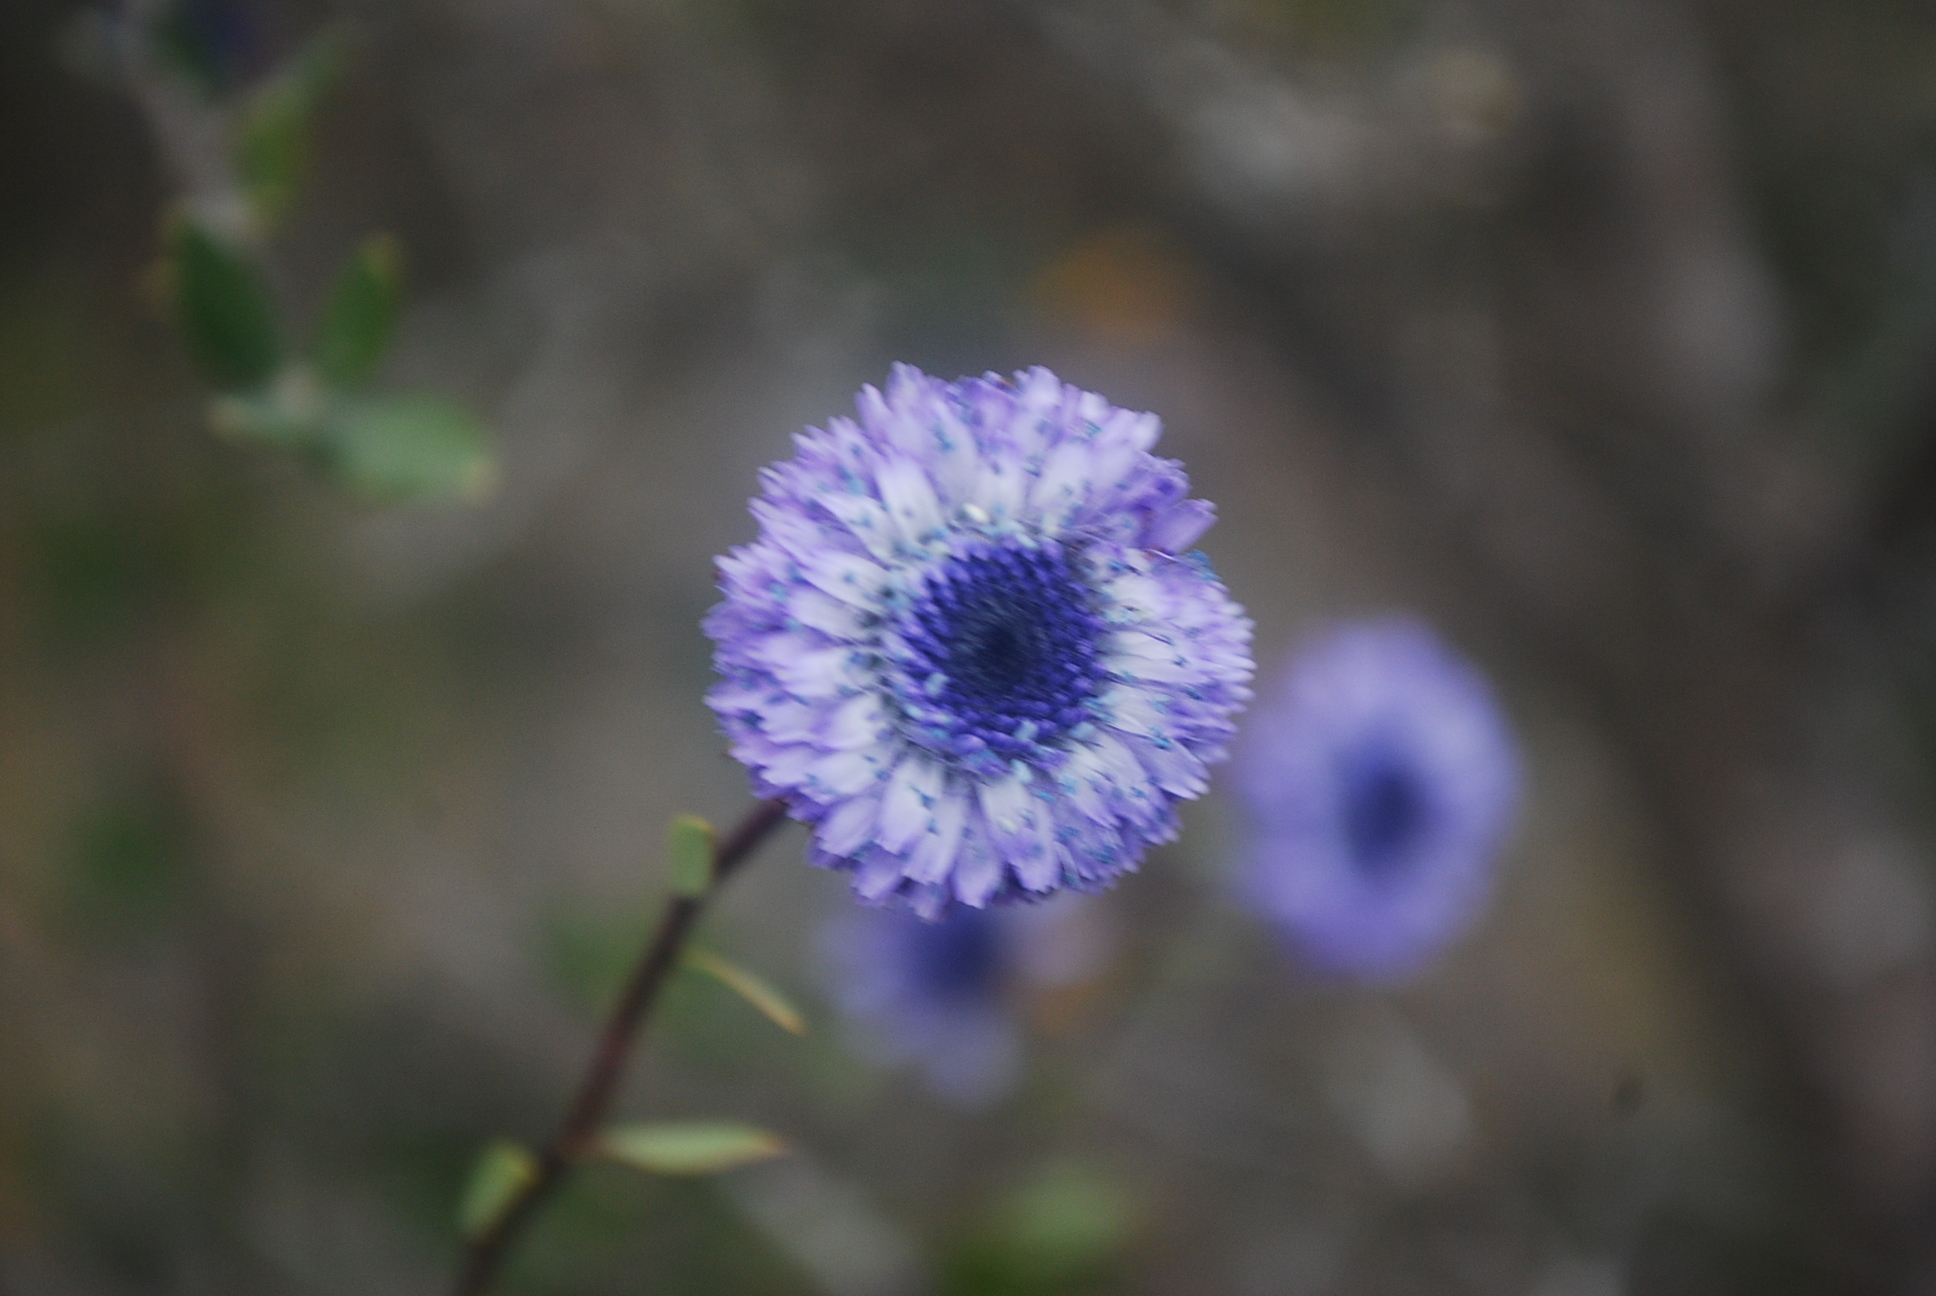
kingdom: Plantae
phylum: Tracheophyta
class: Magnoliopsida
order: Lamiales
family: Plantaginaceae
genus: Globularia
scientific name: Globularia alypum
